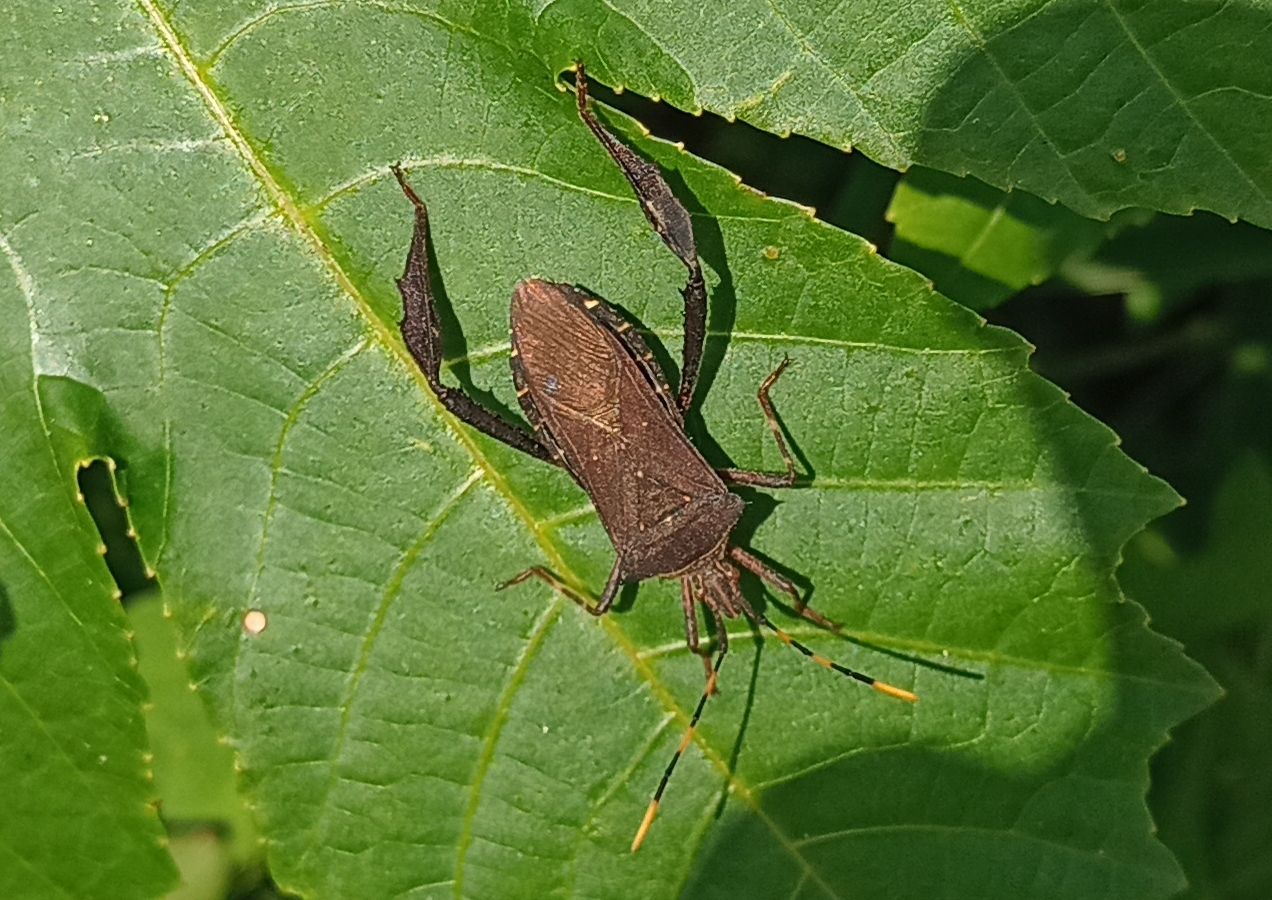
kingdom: Animalia
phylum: Arthropoda
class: Insecta
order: Hemiptera
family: Coreidae
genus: Leptoglossus
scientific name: Leptoglossus gonagra
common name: Citron bug
